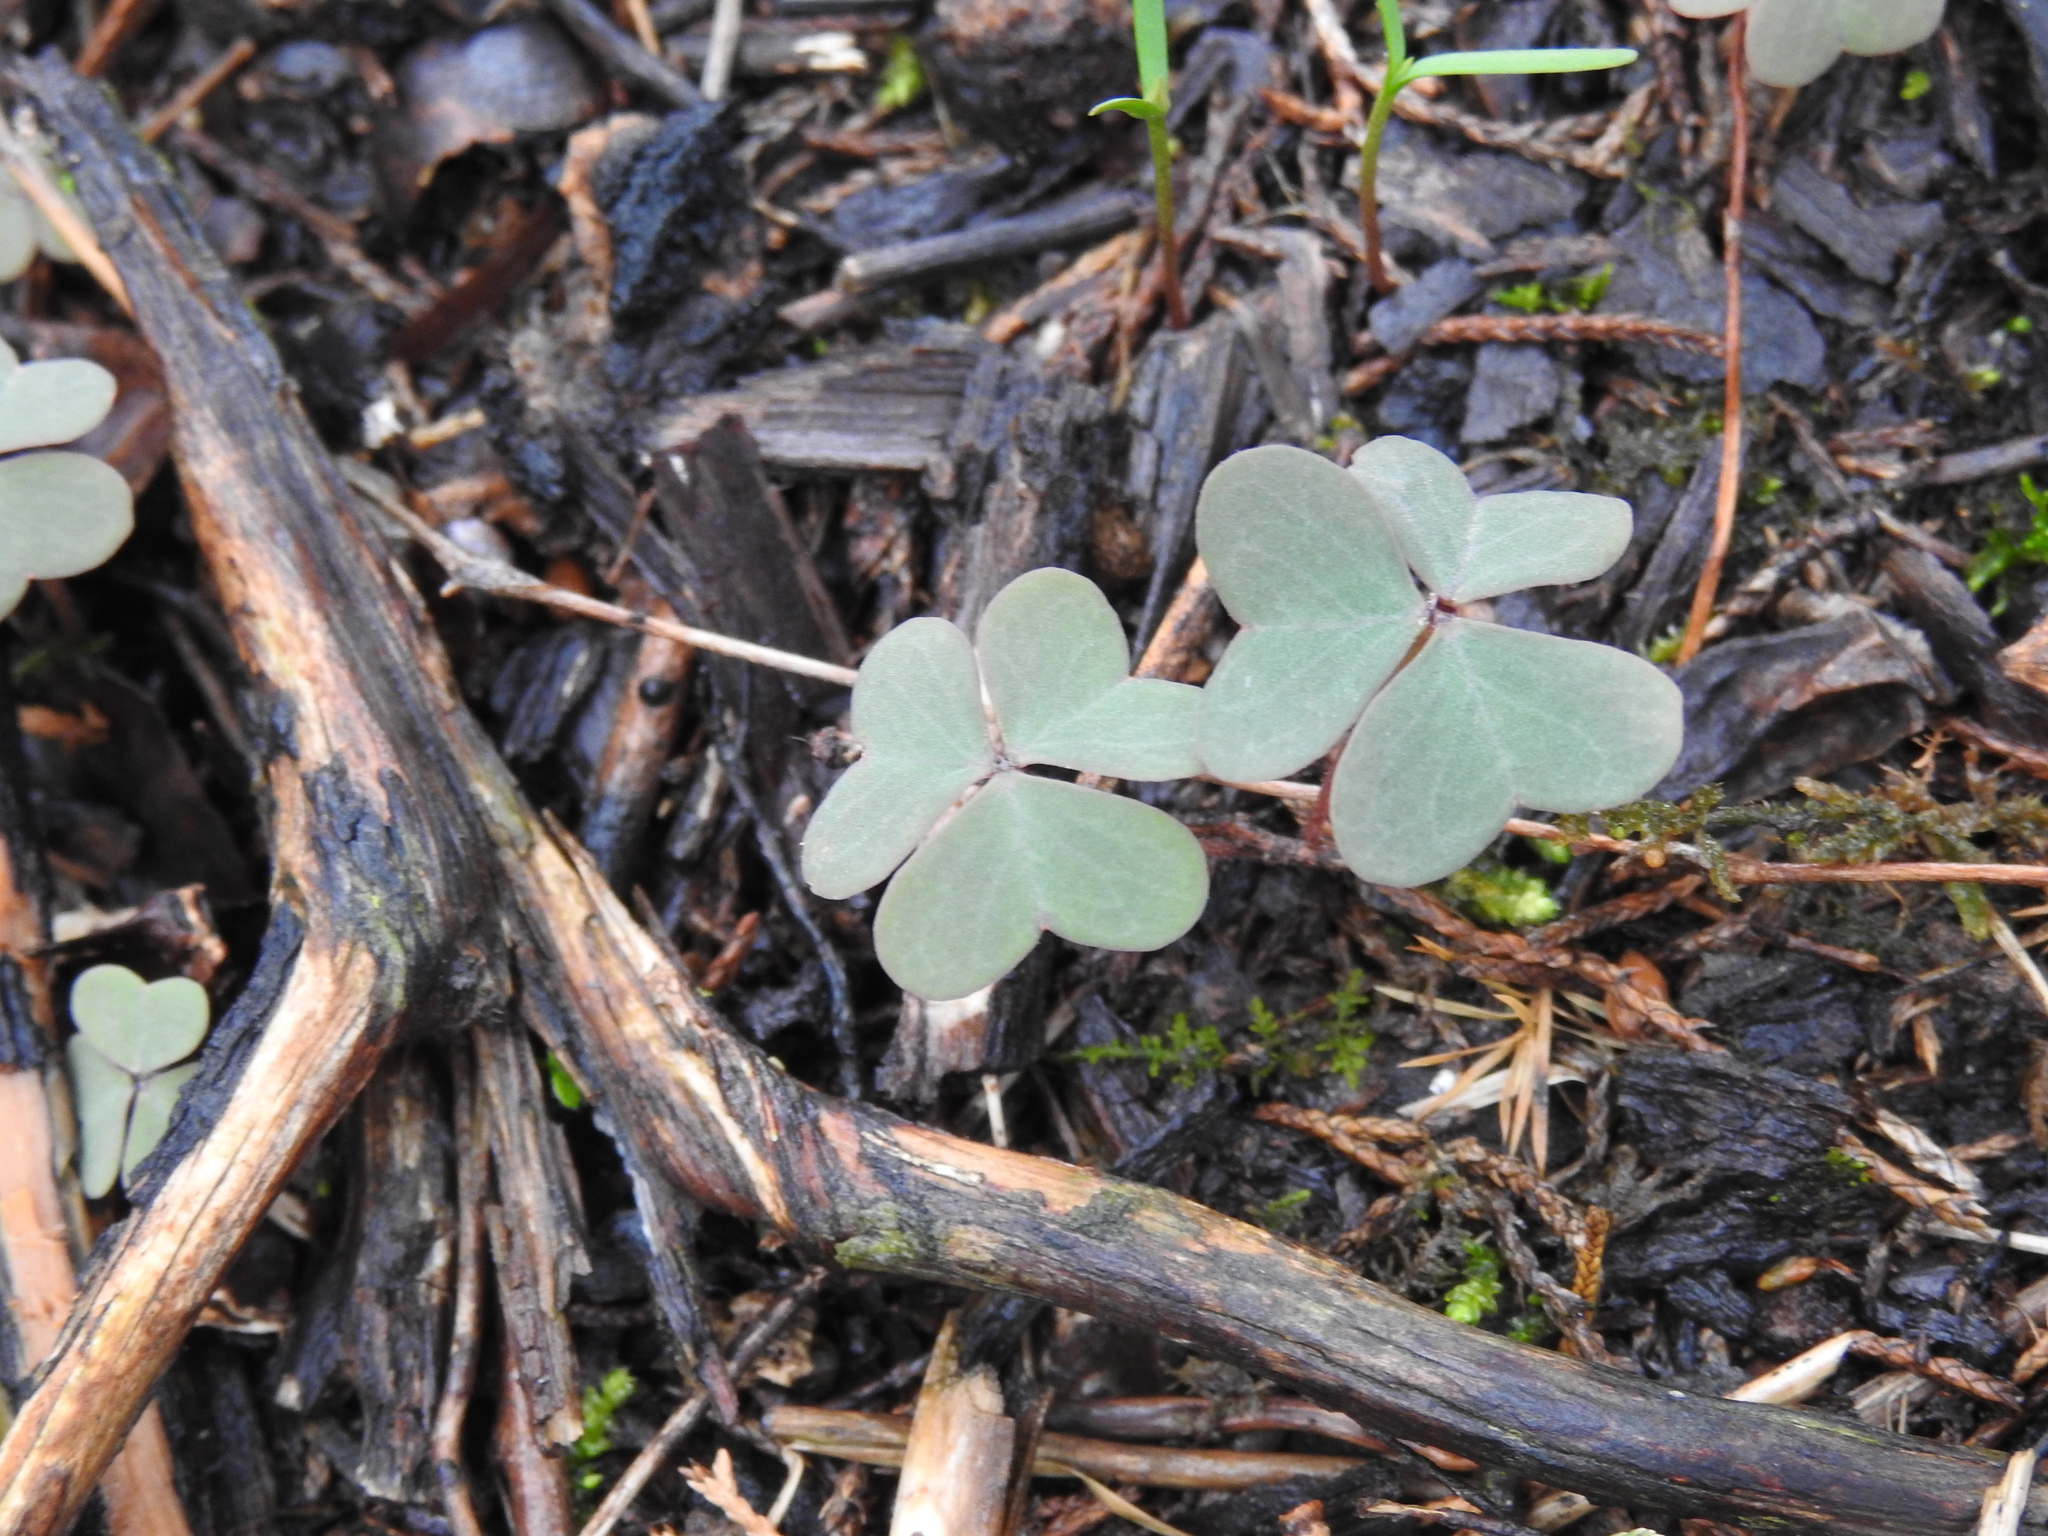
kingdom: Plantae
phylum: Tracheophyta
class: Magnoliopsida
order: Oxalidales
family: Oxalidaceae
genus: Oxalis
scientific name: Oxalis violacea
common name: Violet wood-sorrel
